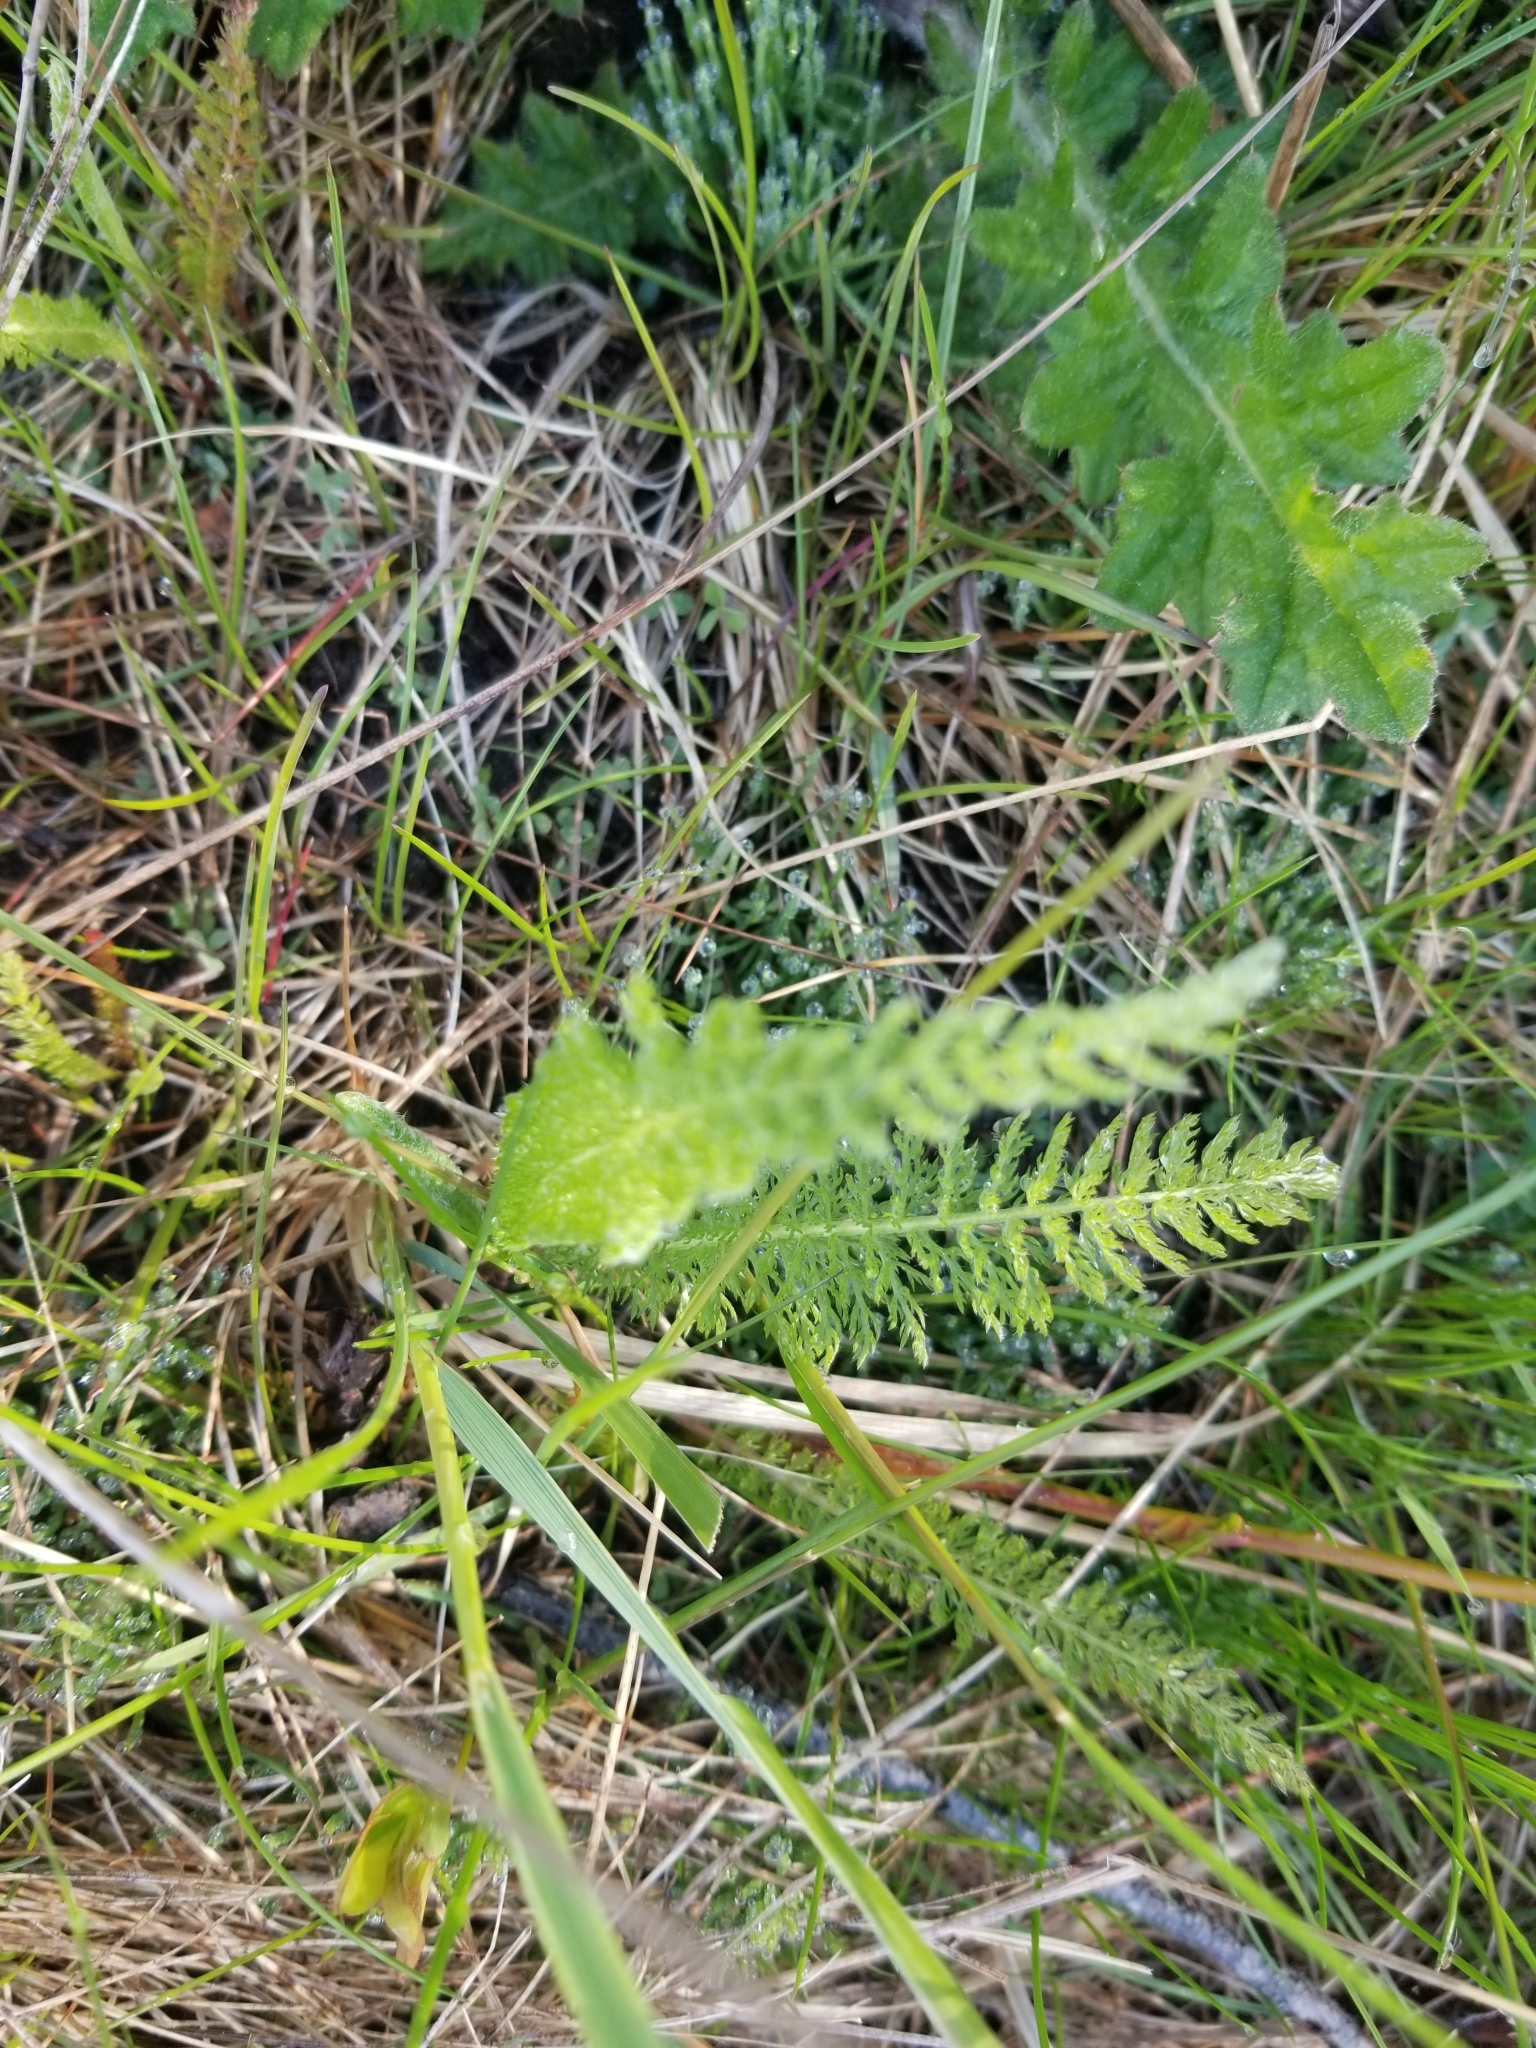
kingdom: Plantae
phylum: Tracheophyta
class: Magnoliopsida
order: Asterales
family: Asteraceae
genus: Achillea
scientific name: Achillea millefolium
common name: Yarrow
